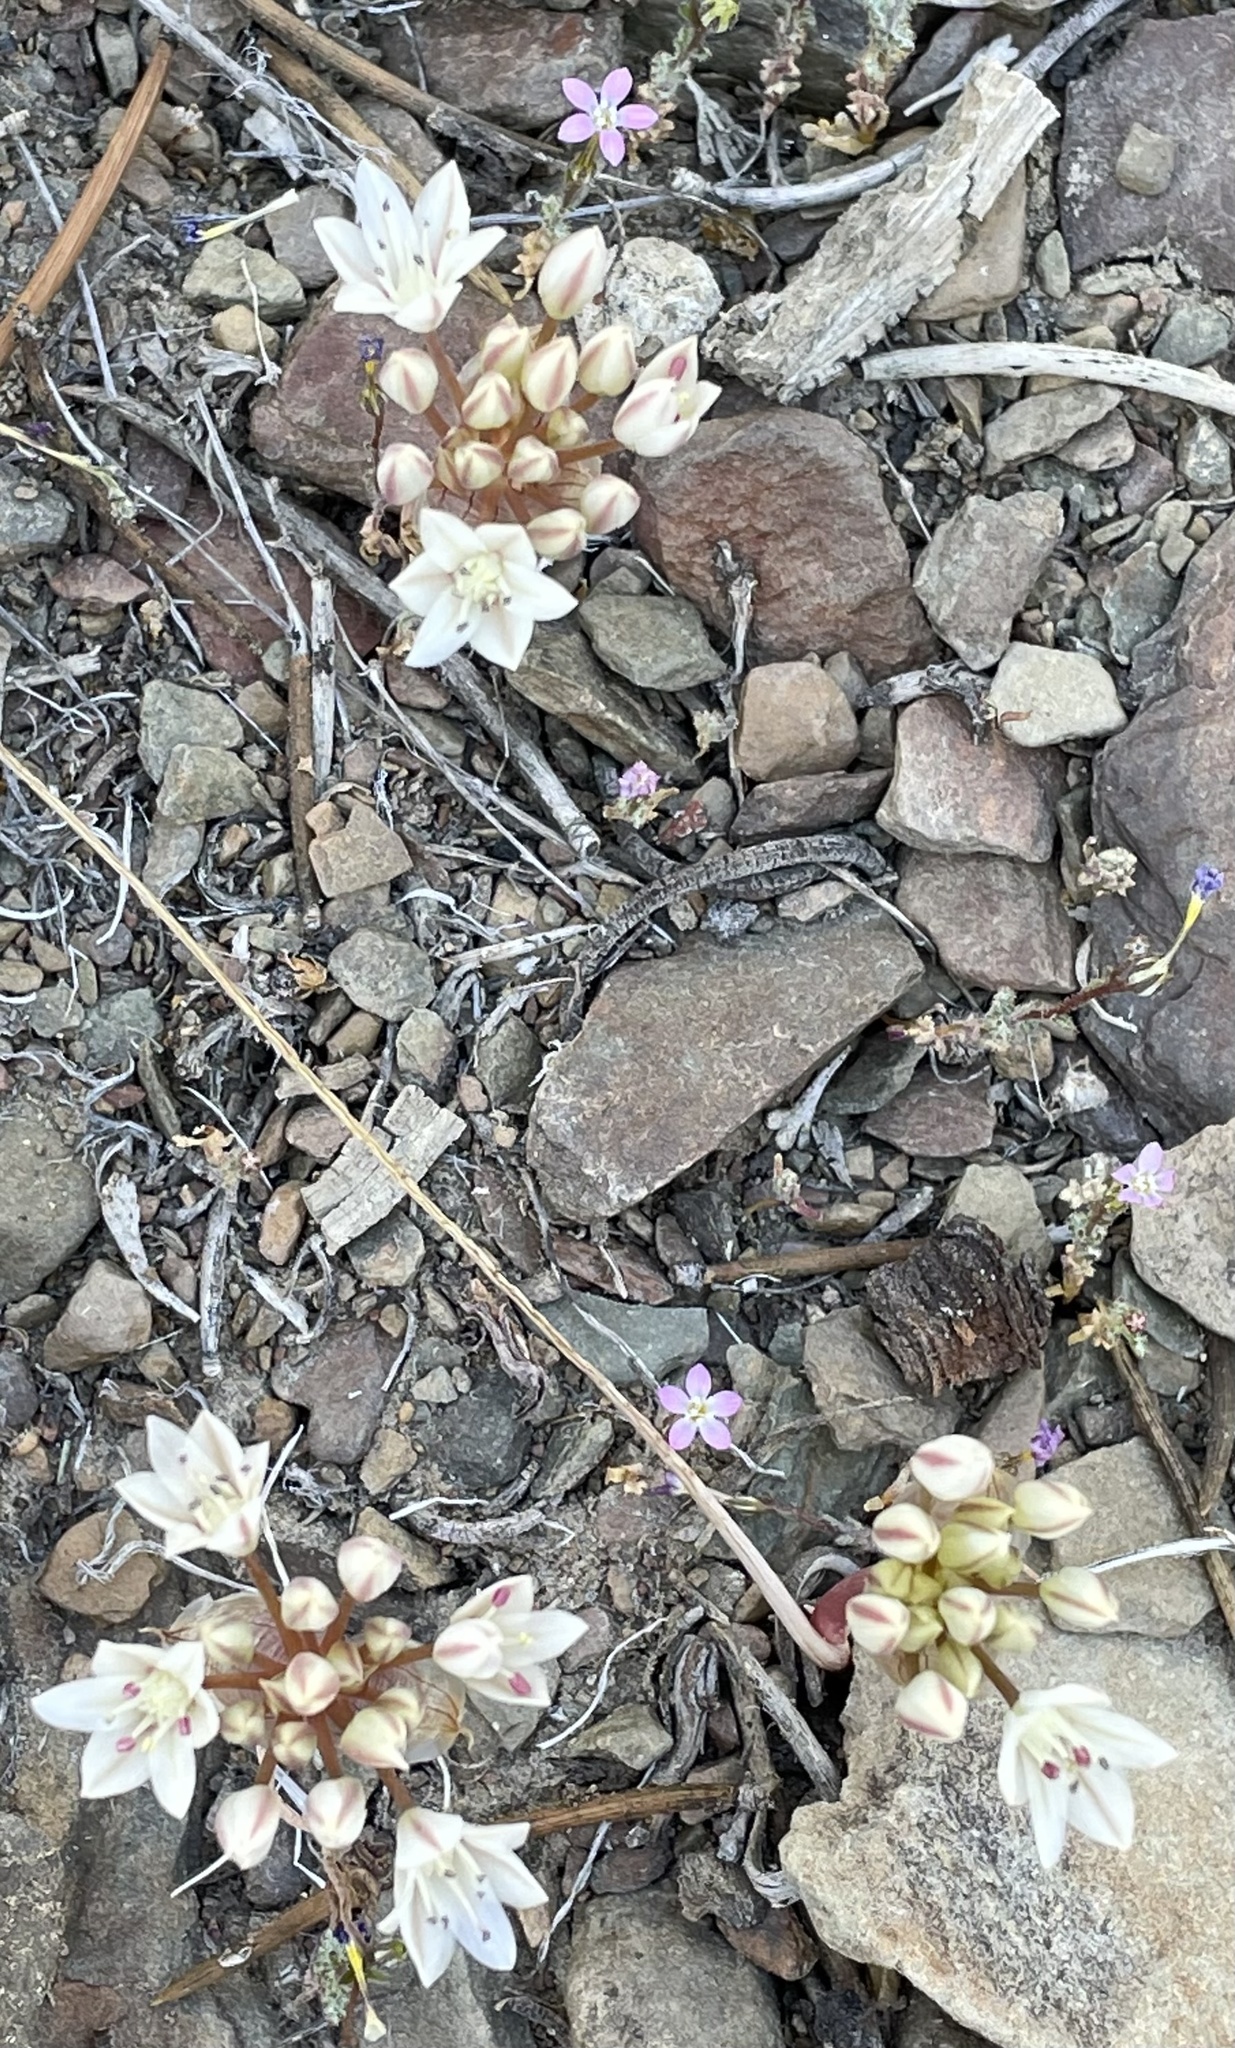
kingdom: Plantae
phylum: Tracheophyta
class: Liliopsida
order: Asparagales
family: Amaryllidaceae
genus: Allium
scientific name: Allium atrorubens
